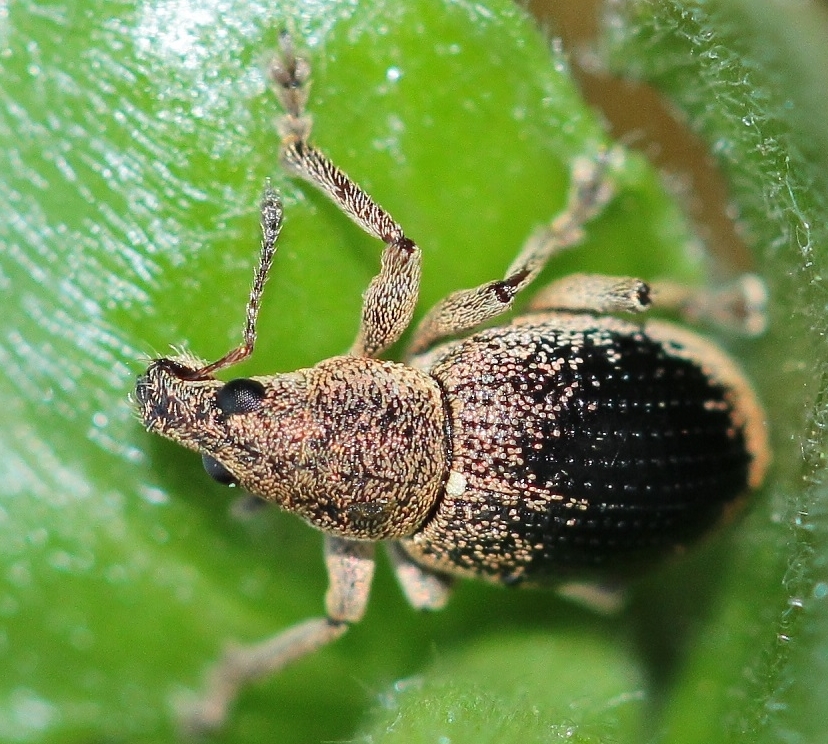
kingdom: Animalia
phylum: Arthropoda
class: Insecta
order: Coleoptera
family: Curculionidae
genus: Sciaphobus
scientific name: Sciaphobus squalidus
